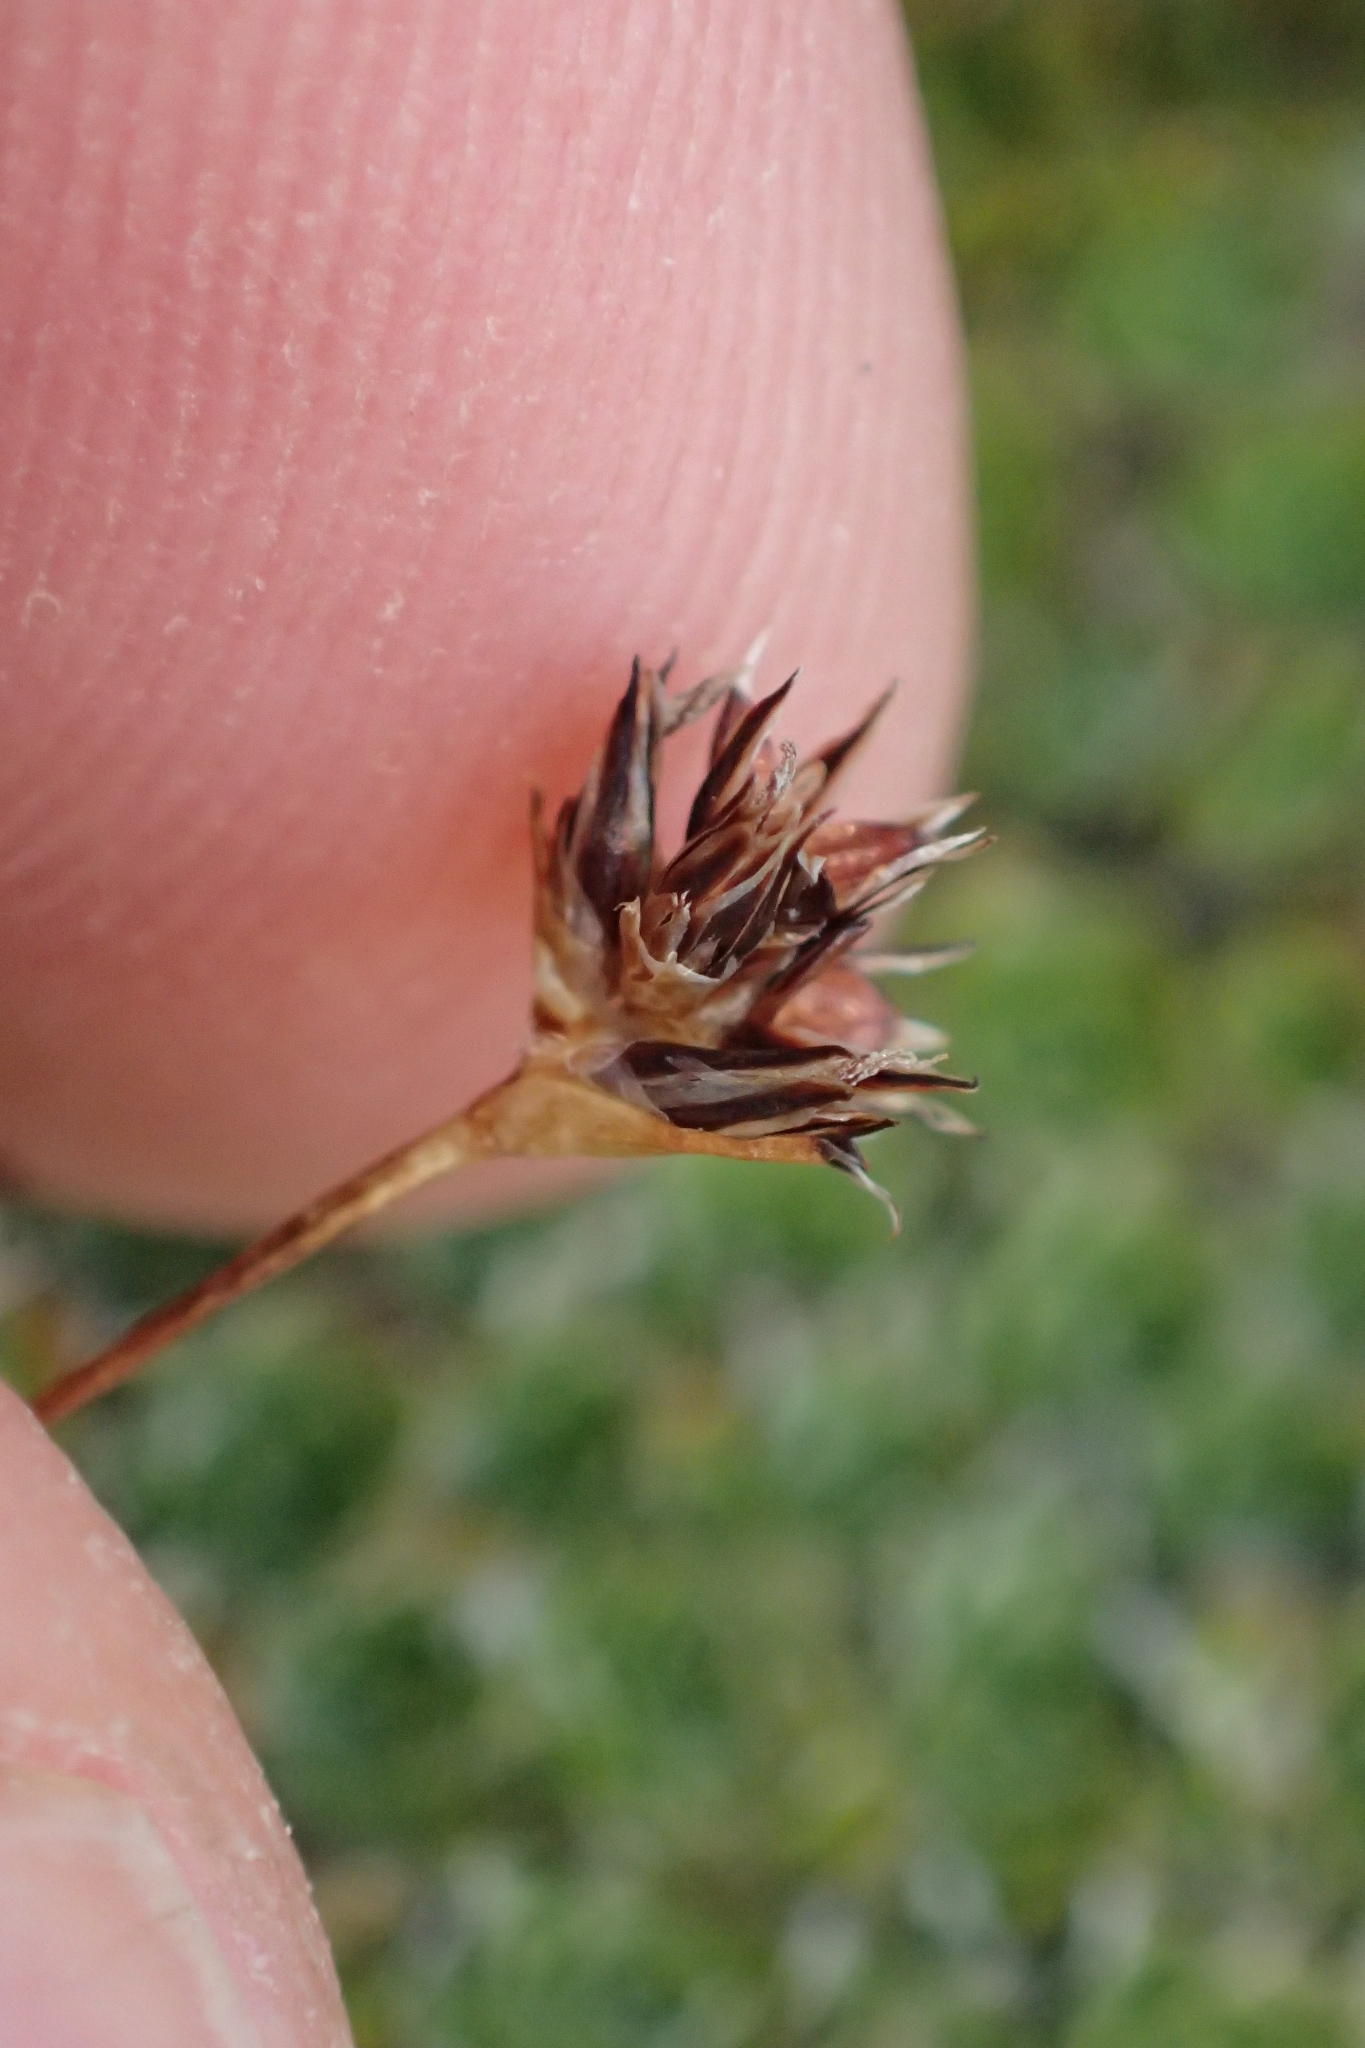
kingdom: Plantae
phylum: Tracheophyta
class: Liliopsida
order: Poales
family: Juncaceae
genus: Luzula
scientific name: Luzula pumila
